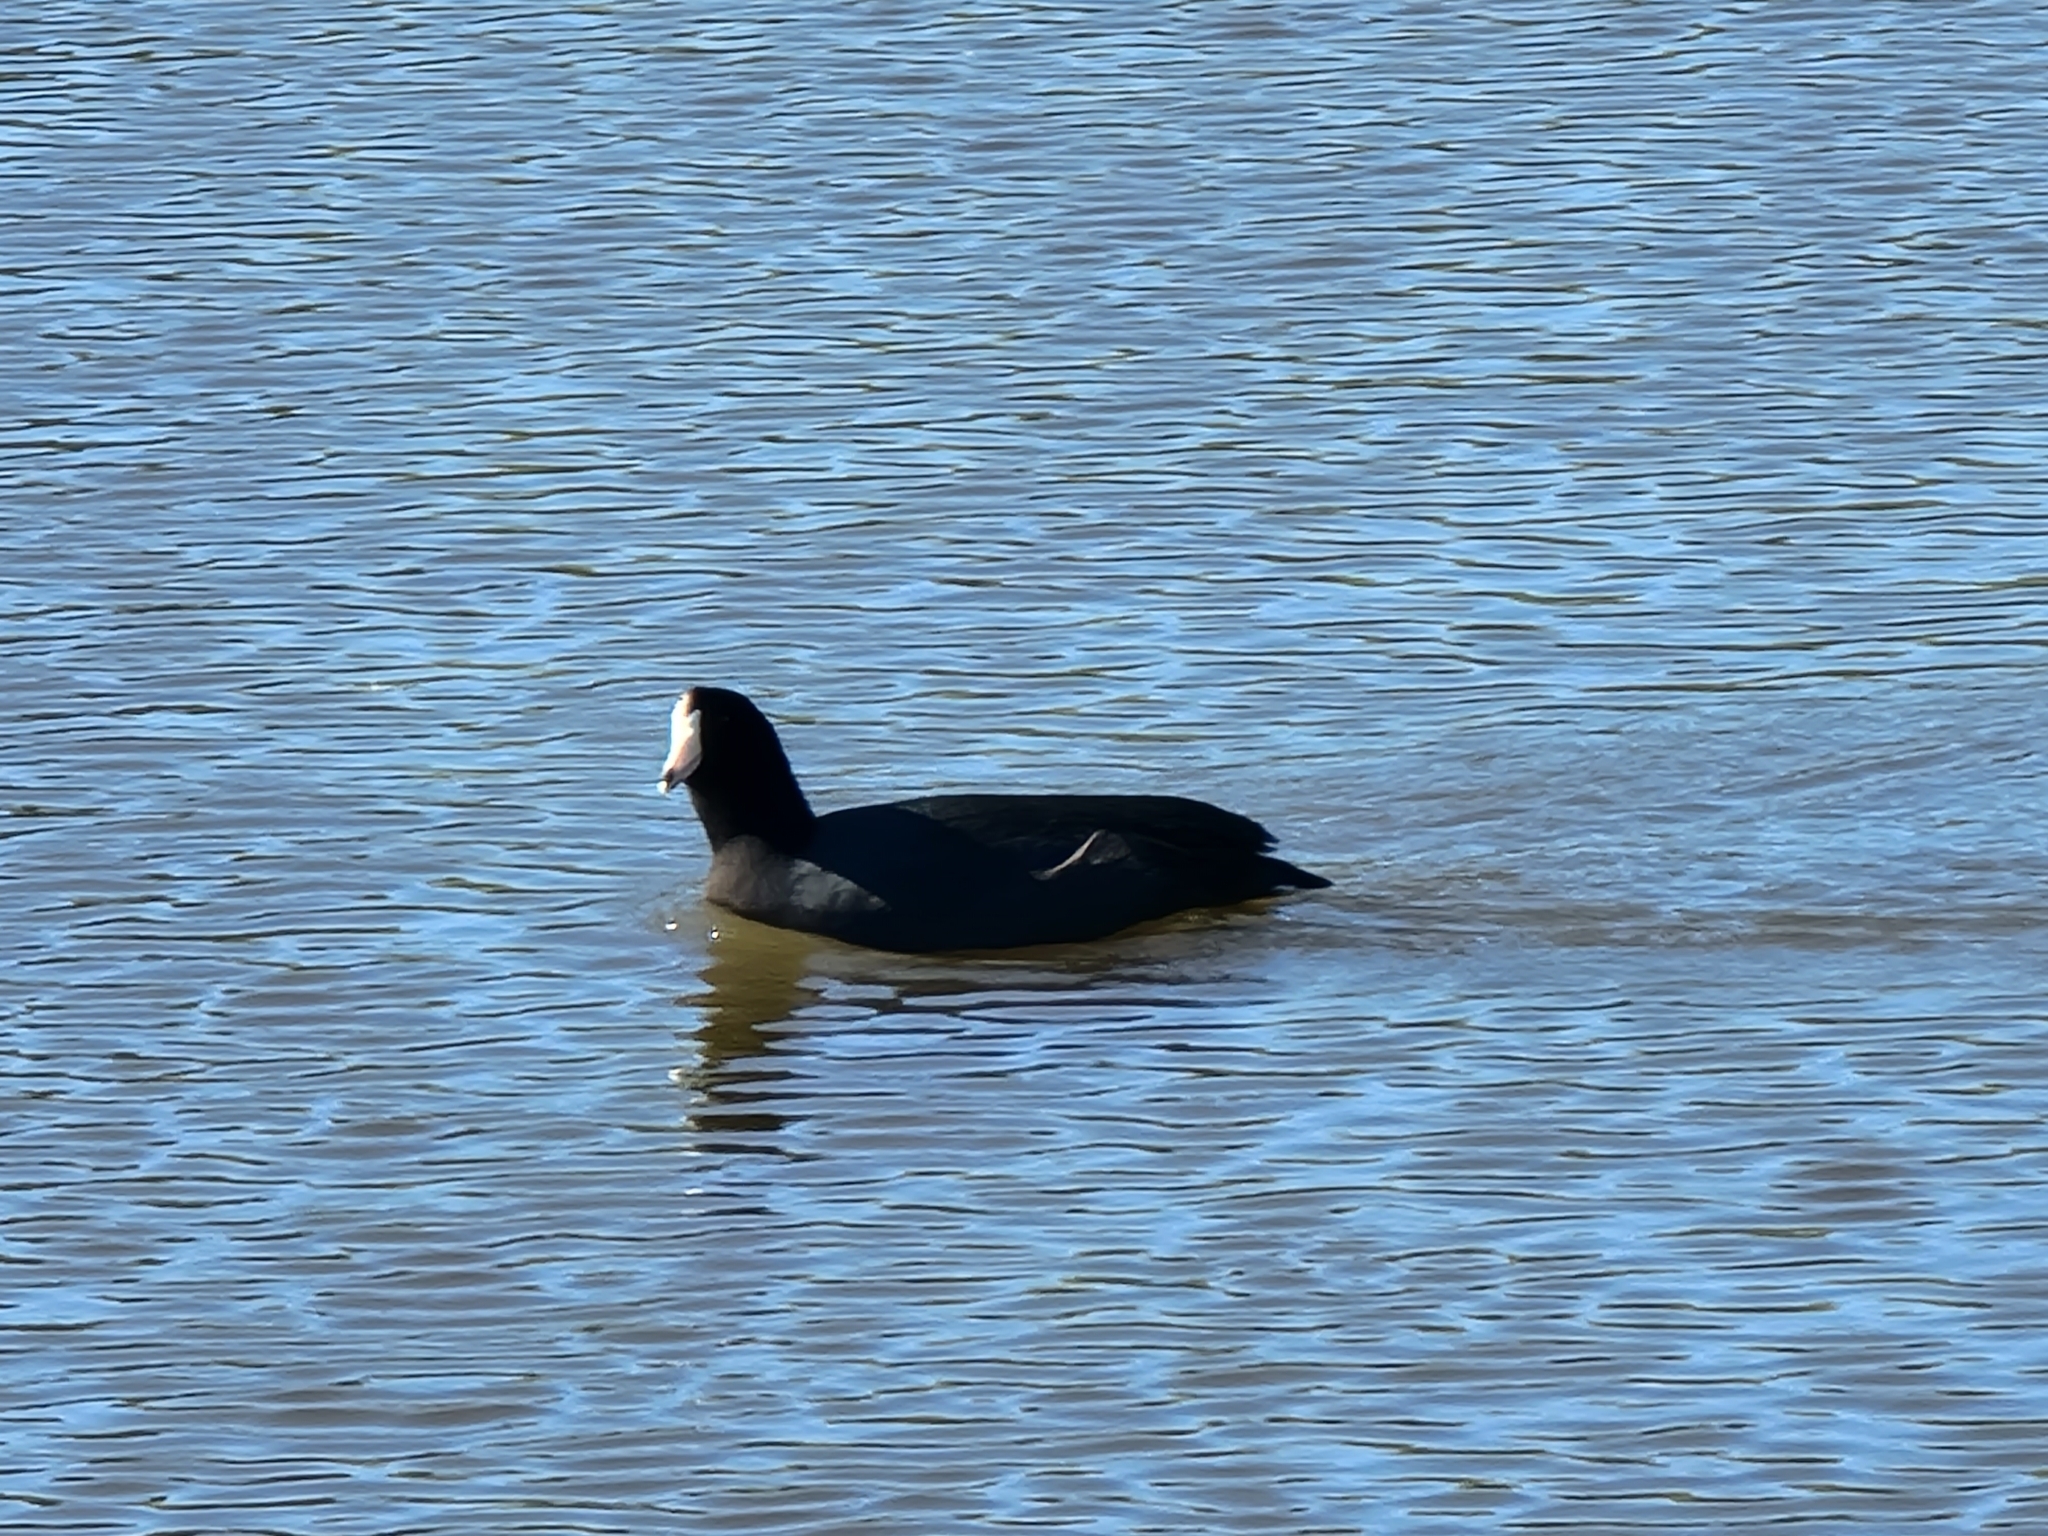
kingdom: Animalia
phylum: Chordata
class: Aves
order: Gruiformes
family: Rallidae
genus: Fulica
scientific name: Fulica americana
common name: American coot
